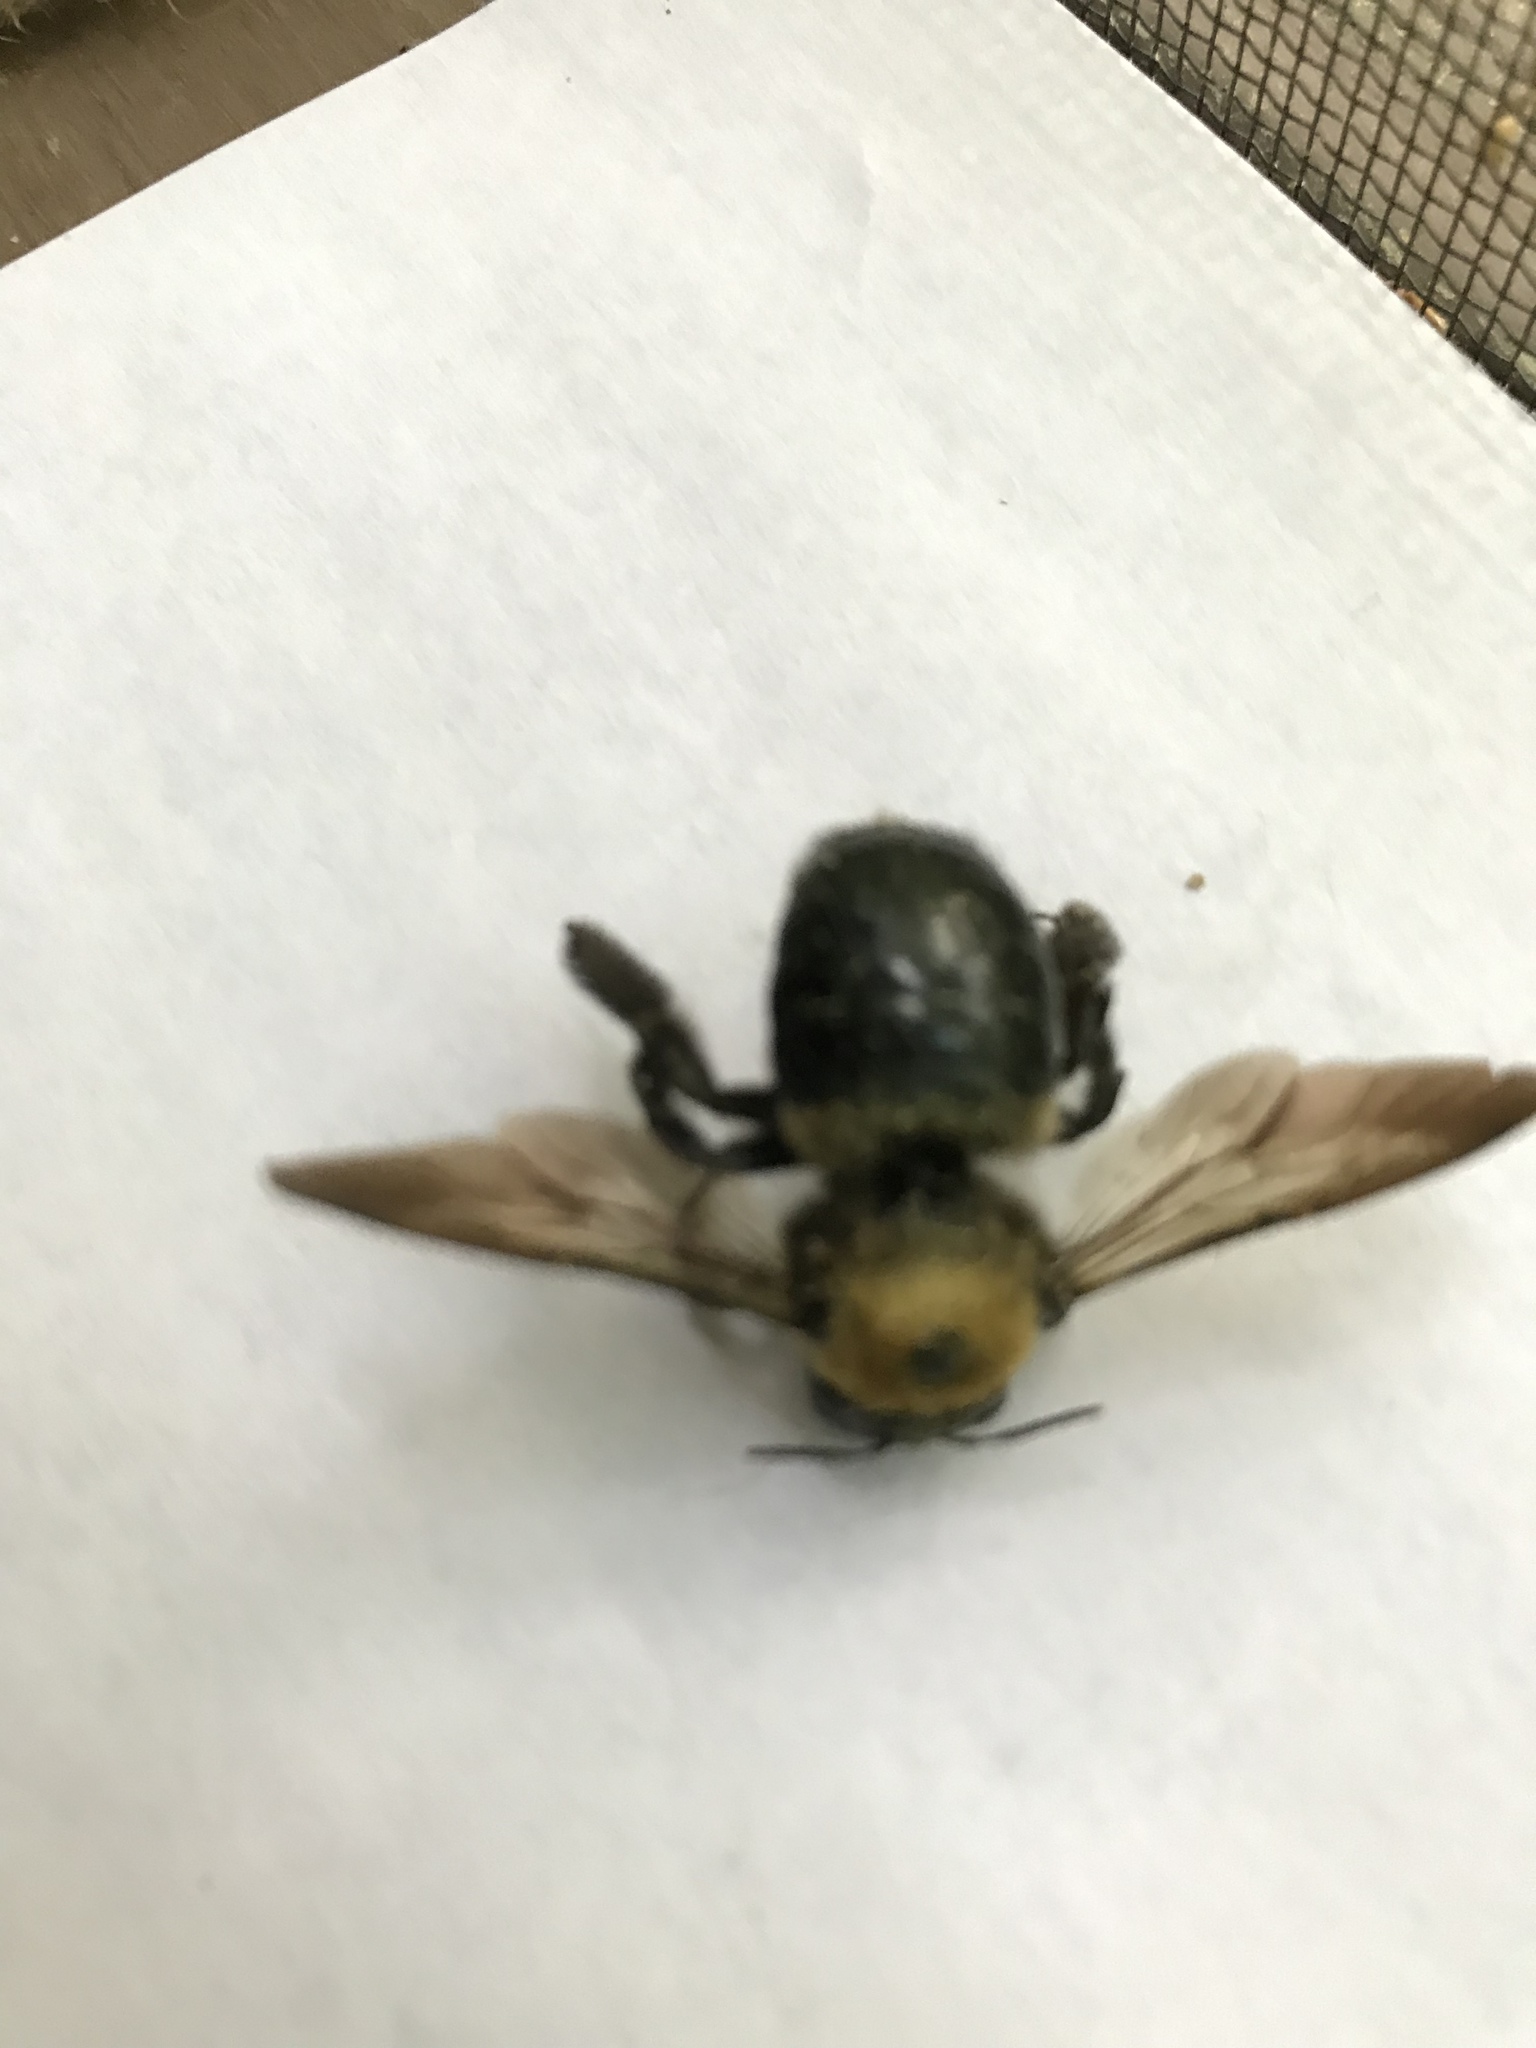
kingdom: Animalia
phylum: Arthropoda
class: Insecta
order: Hymenoptera
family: Apidae
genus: Xylocopa
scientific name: Xylocopa virginica
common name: Carpenter bee
